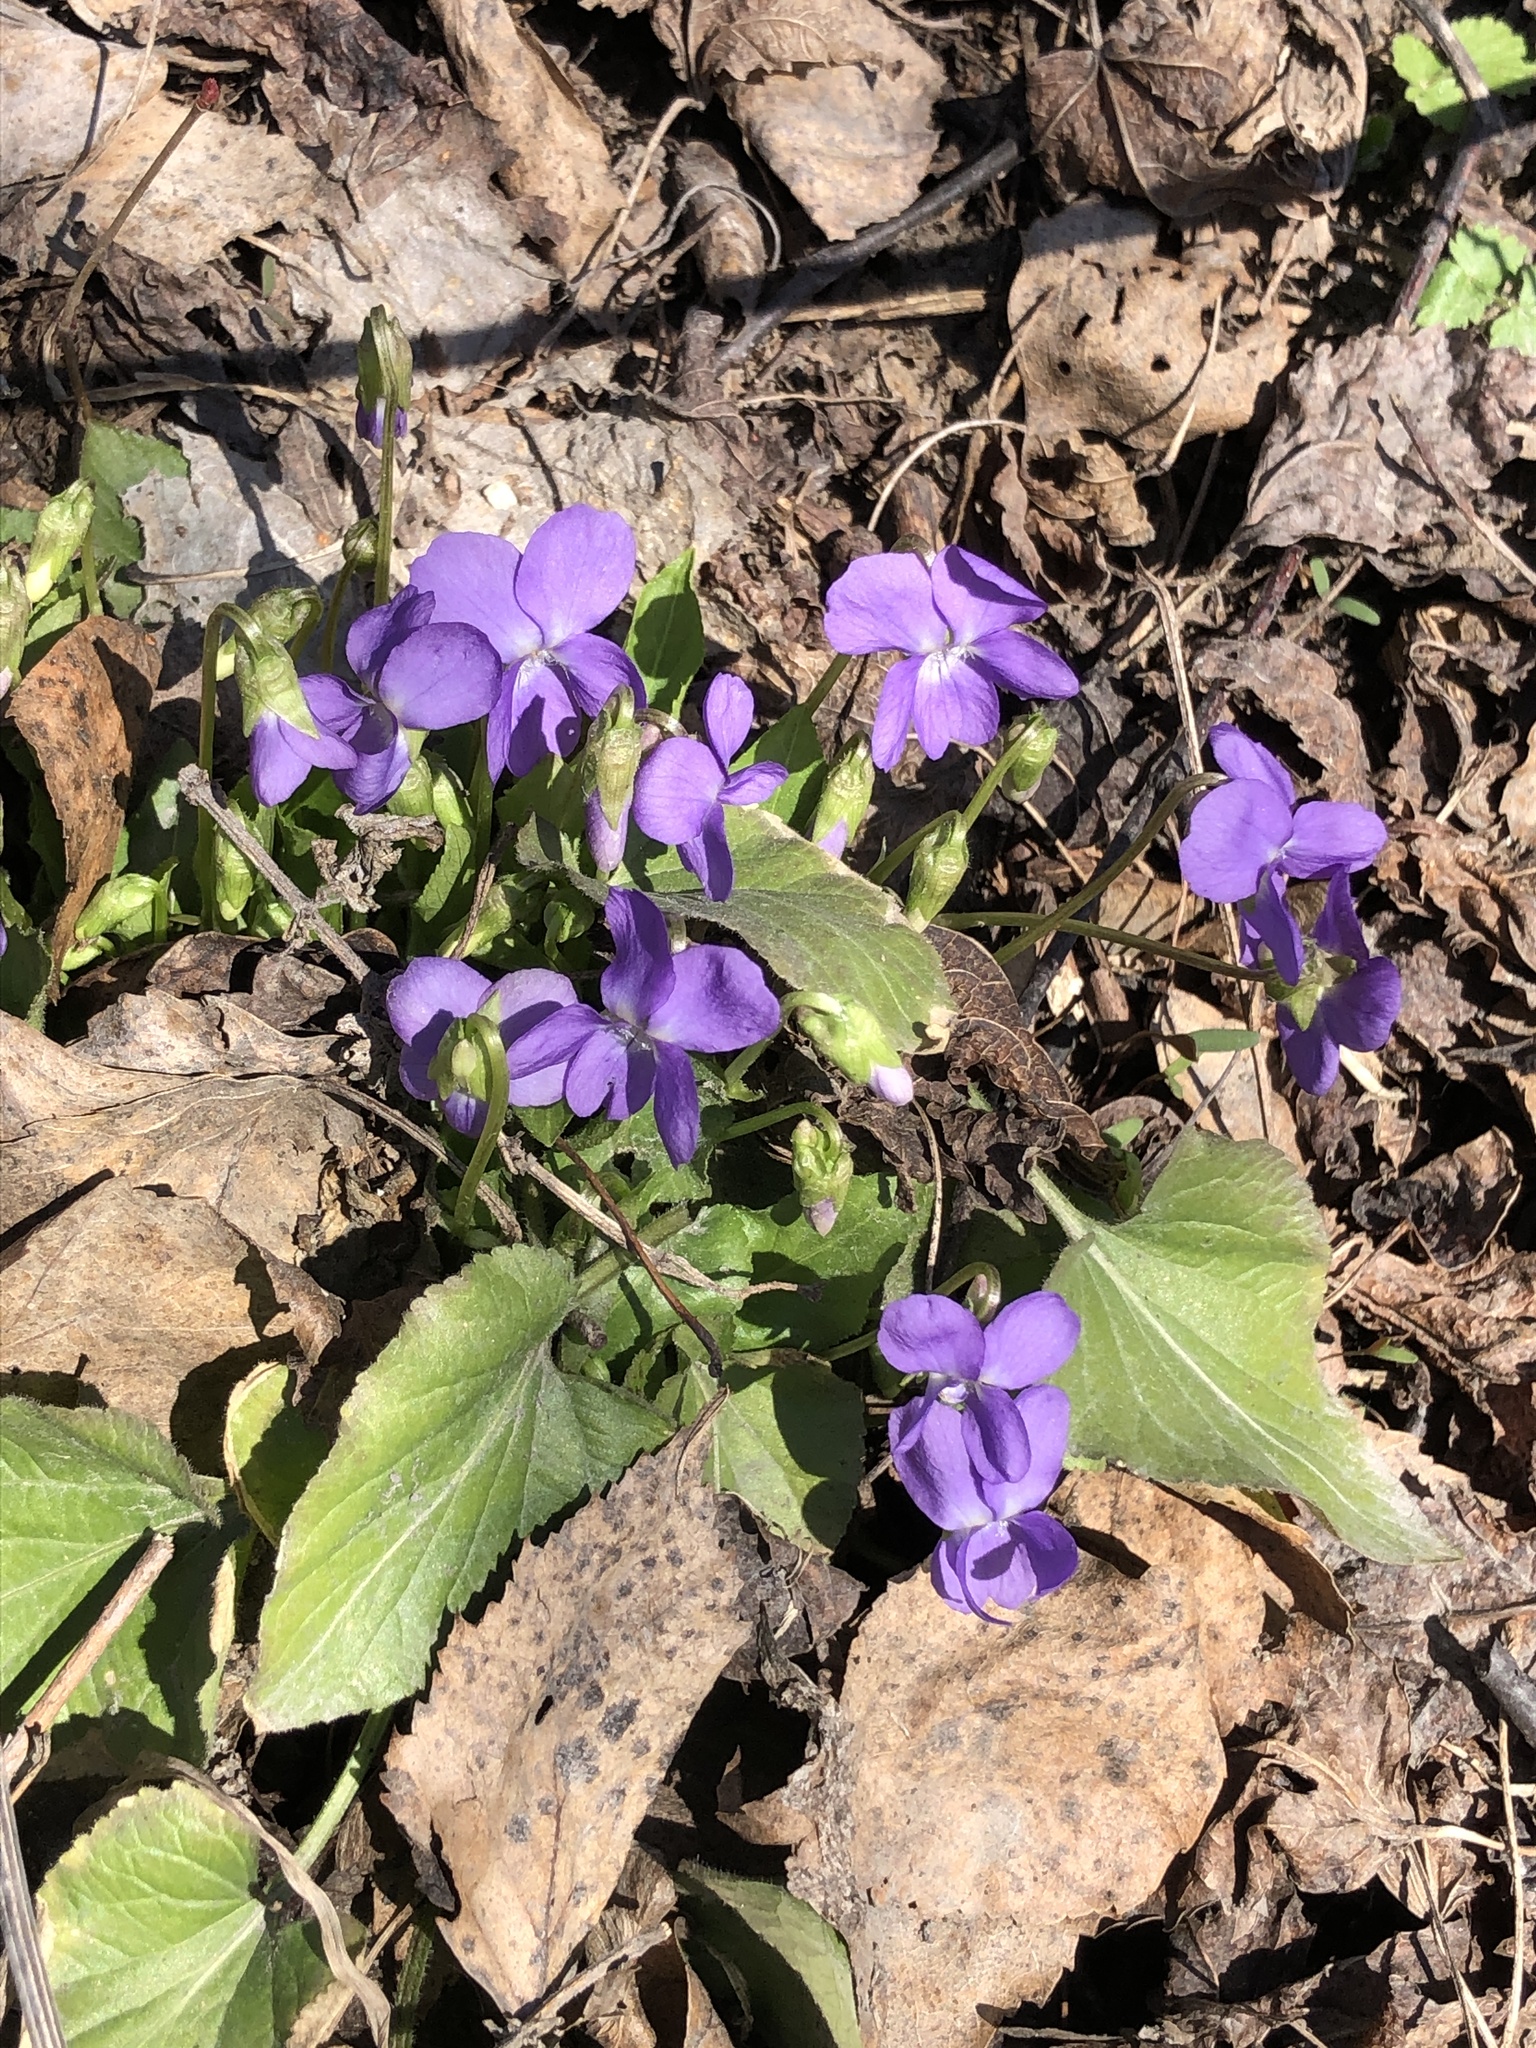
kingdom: Plantae
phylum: Tracheophyta
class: Magnoliopsida
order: Malpighiales
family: Violaceae
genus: Viola
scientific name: Viola hirta
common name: Hairy violet
